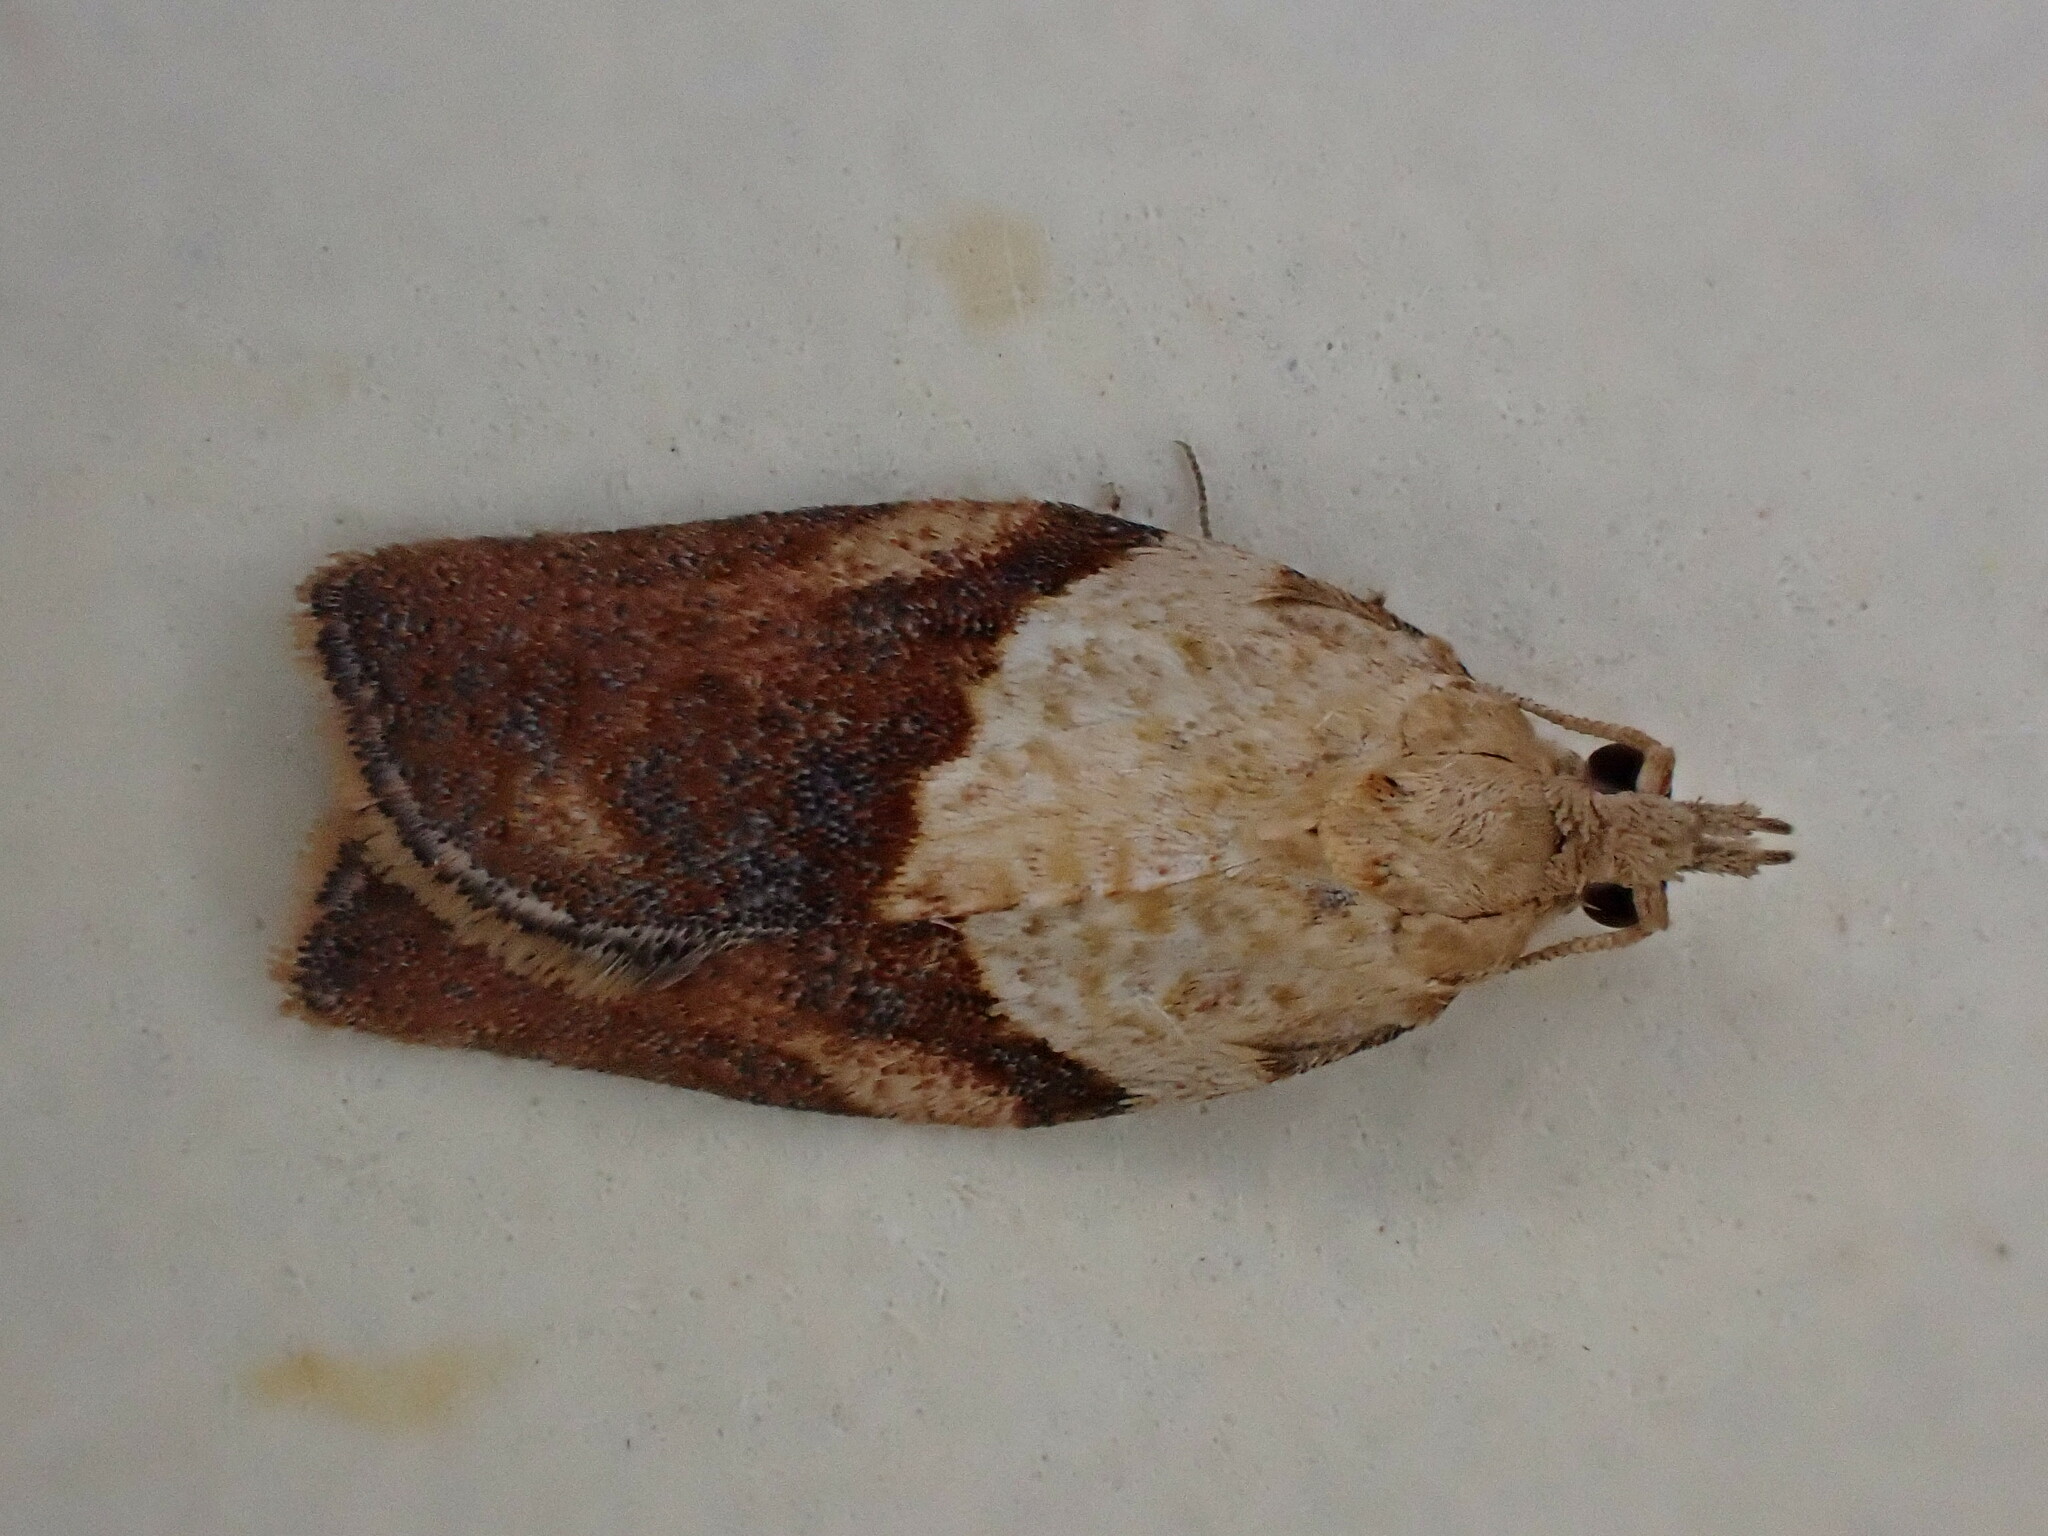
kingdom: Animalia
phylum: Arthropoda
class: Insecta
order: Lepidoptera
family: Tortricidae
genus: Epiphyas
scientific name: Epiphyas postvittana
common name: Light brown apple moth
